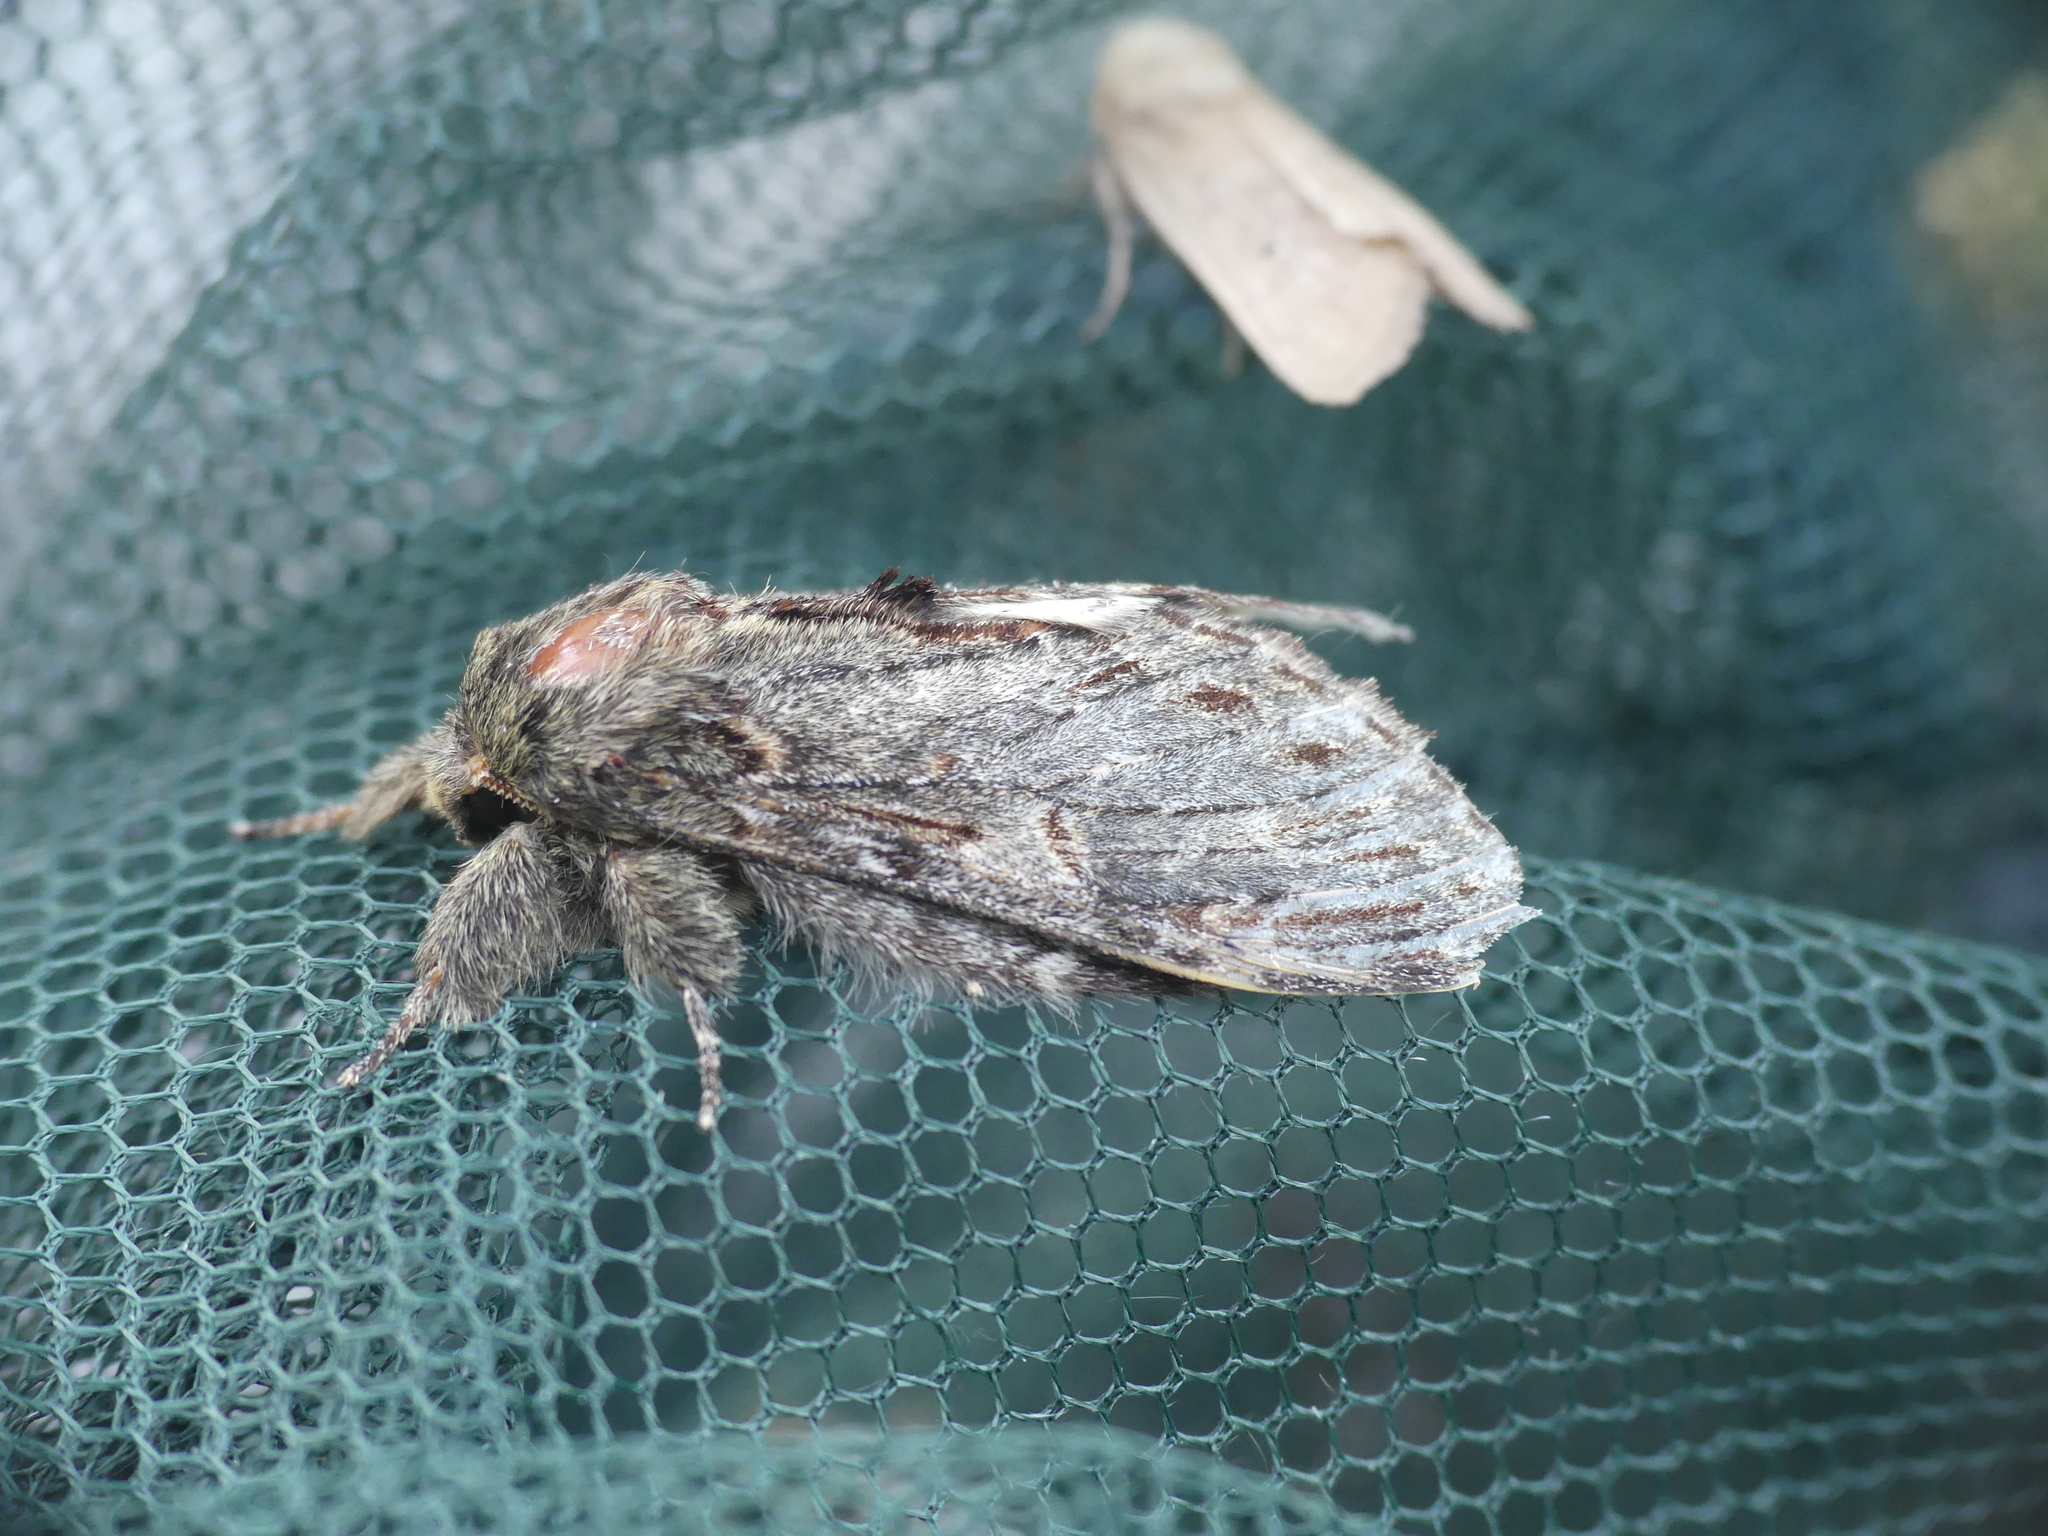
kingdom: Animalia
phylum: Arthropoda
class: Insecta
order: Lepidoptera
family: Notodontidae
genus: Peridea
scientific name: Peridea anceps
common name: Great prominent
